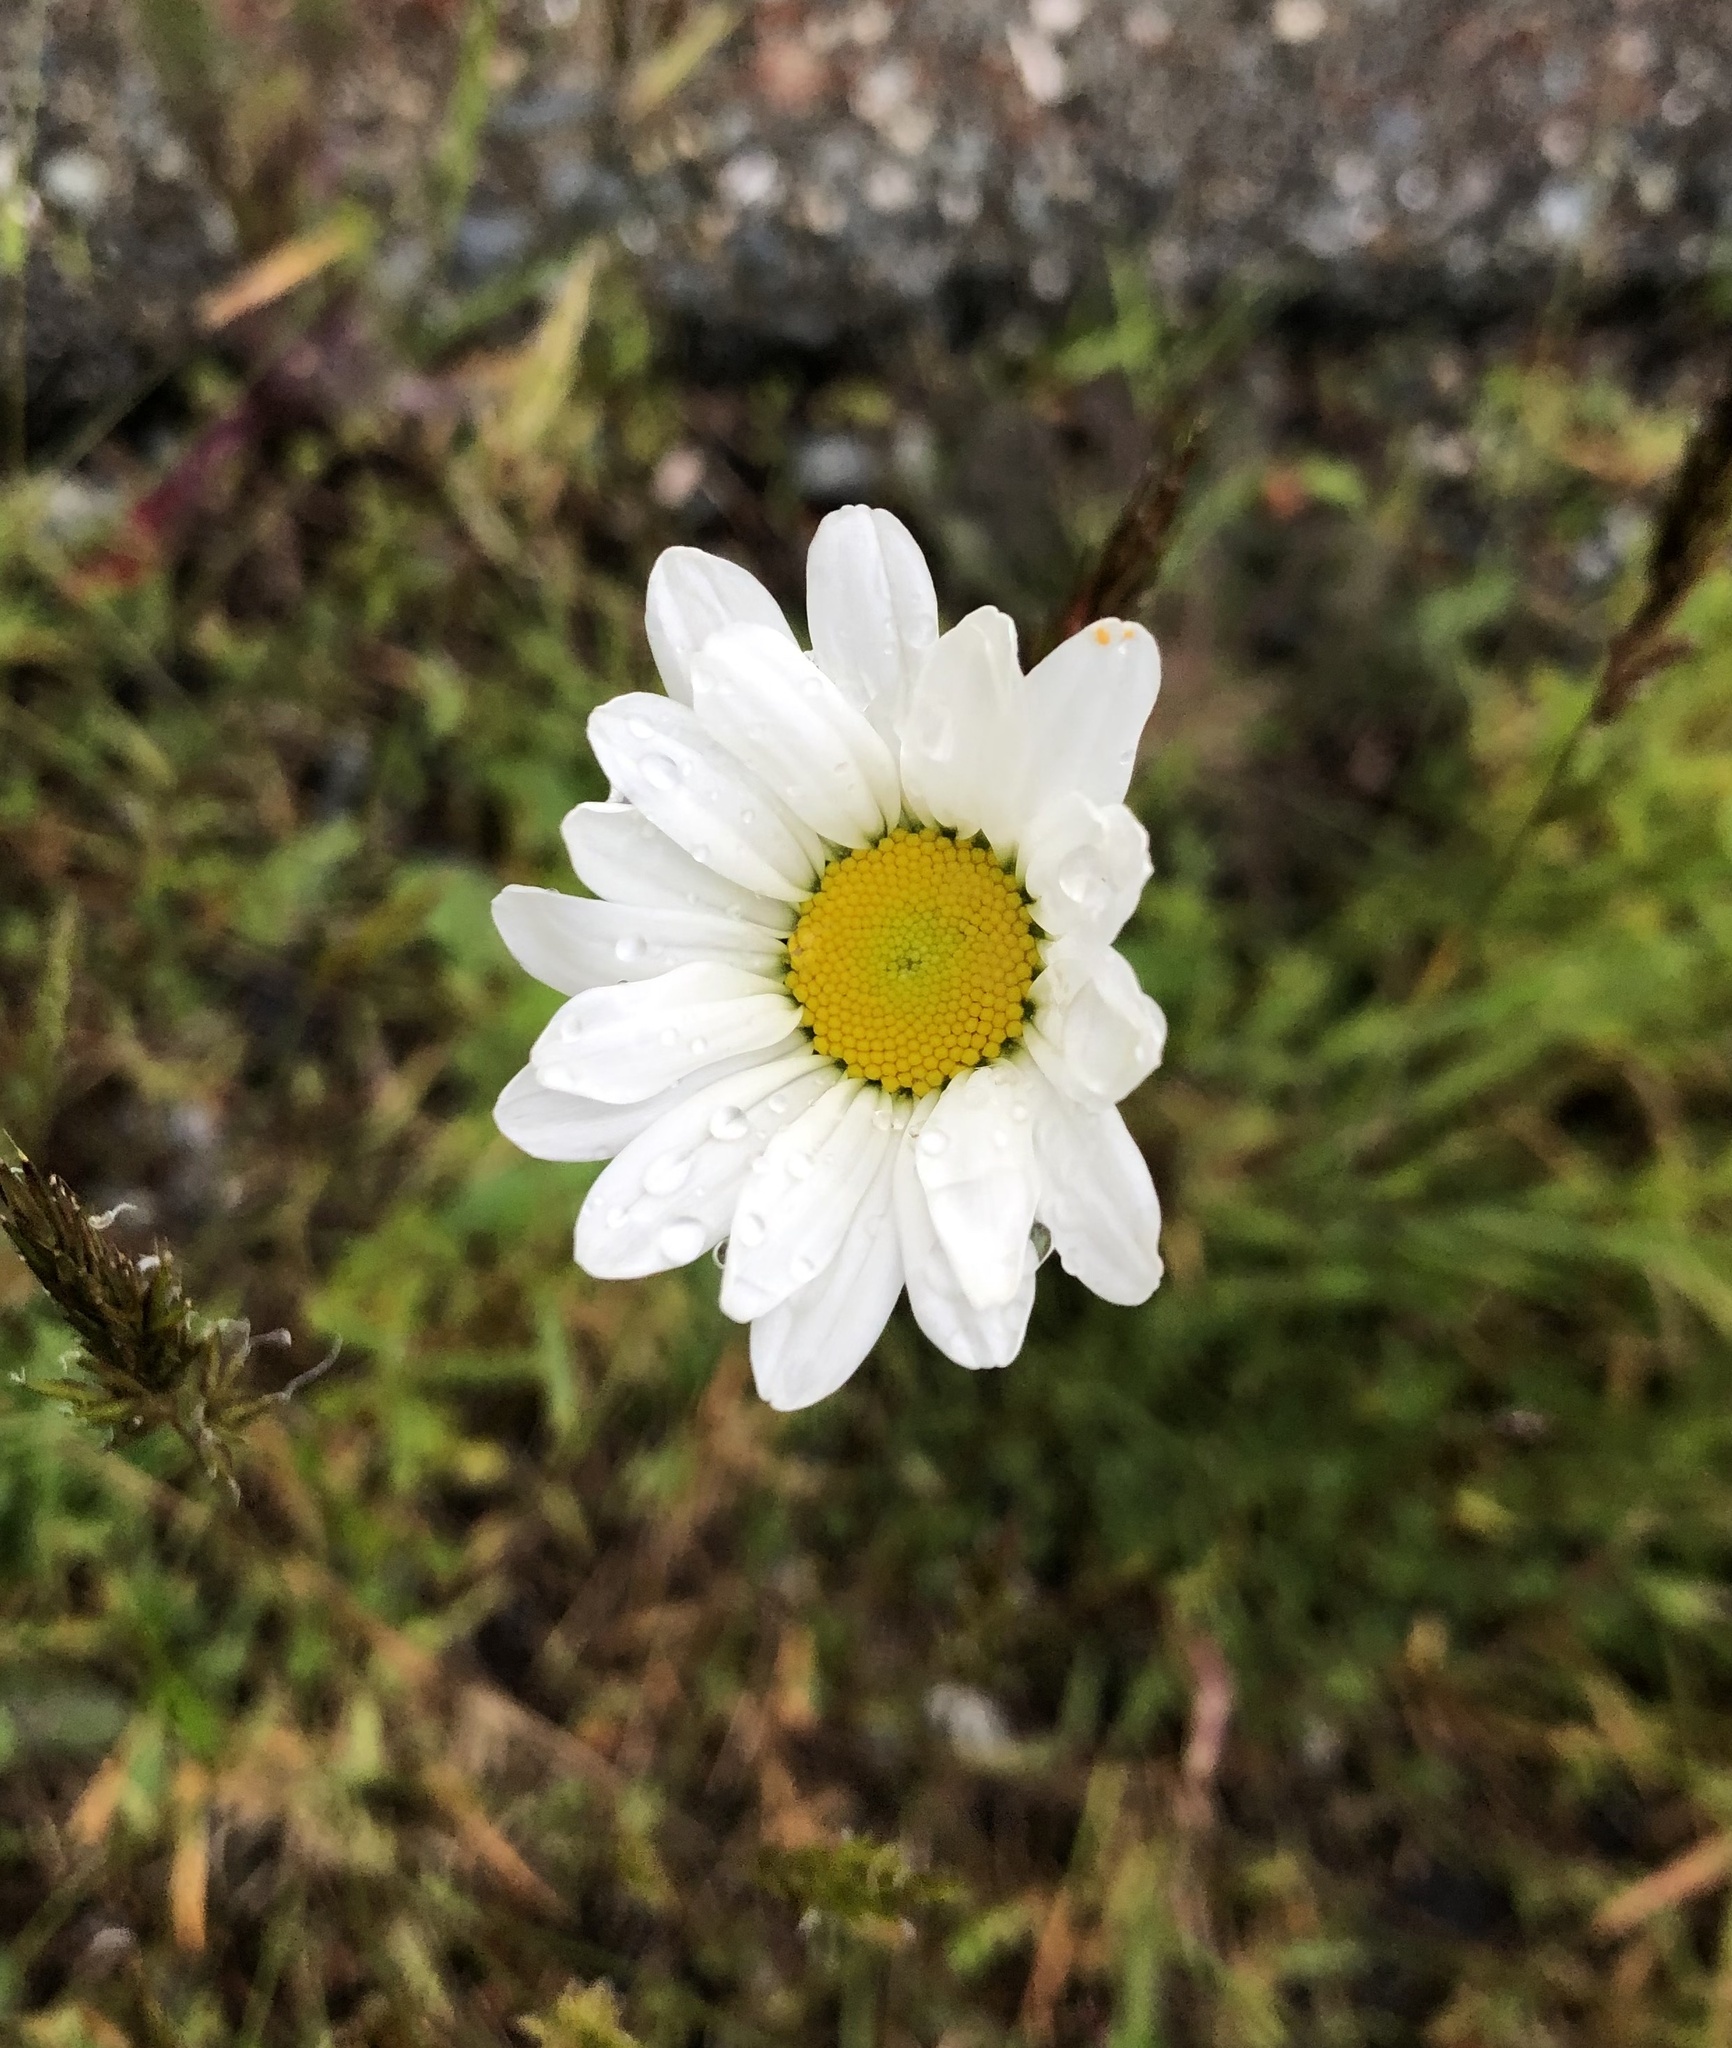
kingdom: Plantae
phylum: Tracheophyta
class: Magnoliopsida
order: Asterales
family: Asteraceae
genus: Leucanthemum
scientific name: Leucanthemum vulgare
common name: Oxeye daisy
